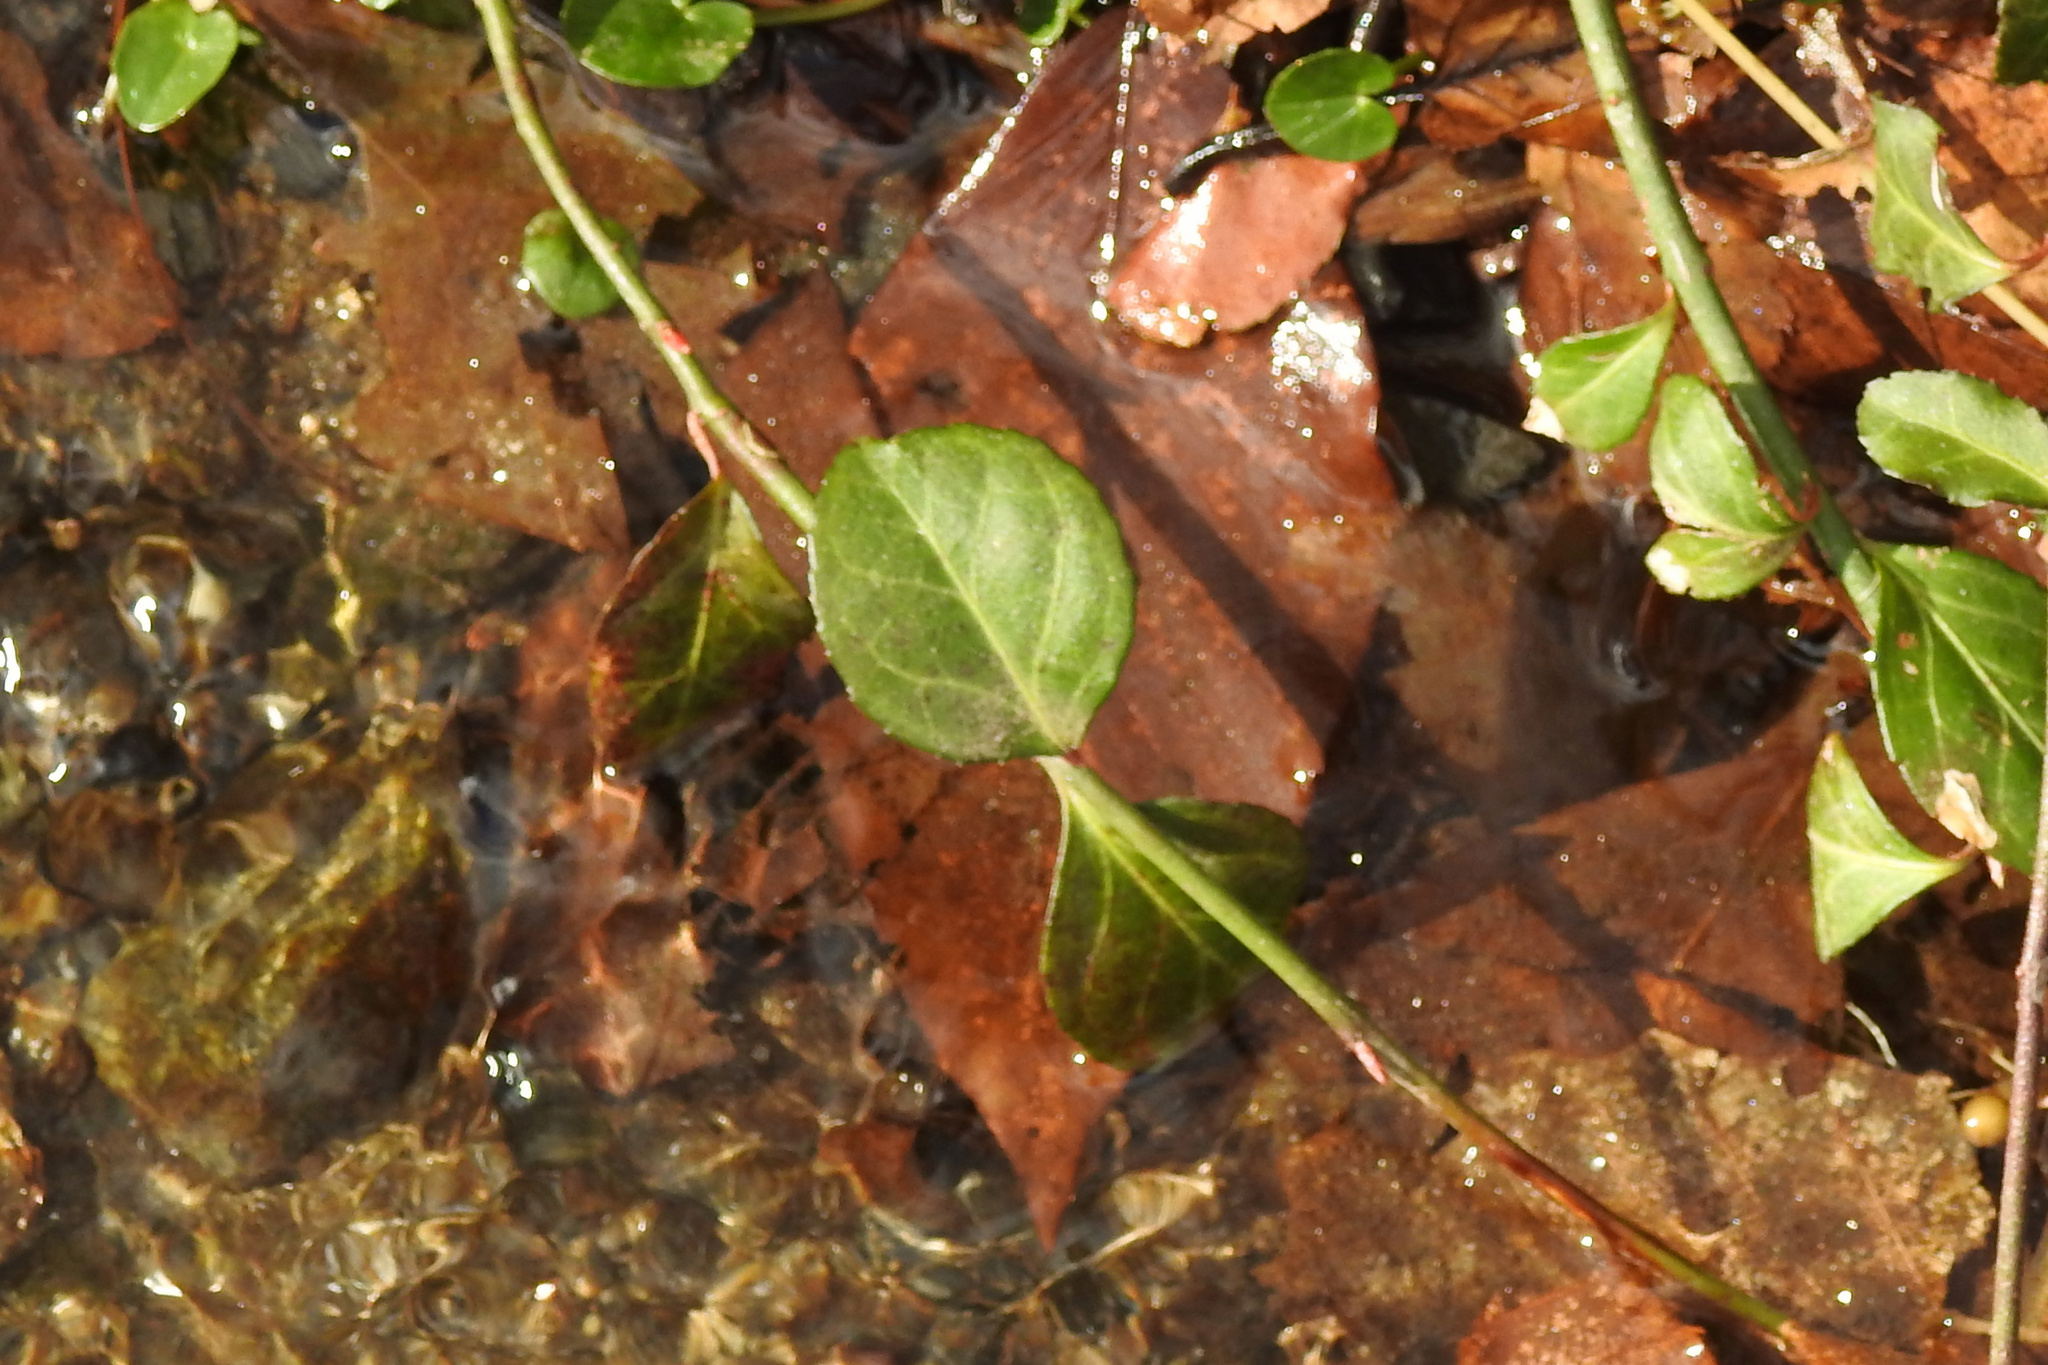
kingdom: Plantae
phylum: Tracheophyta
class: Magnoliopsida
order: Celastrales
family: Celastraceae
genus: Euonymus
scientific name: Euonymus fortunei
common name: Climbing euonymus
